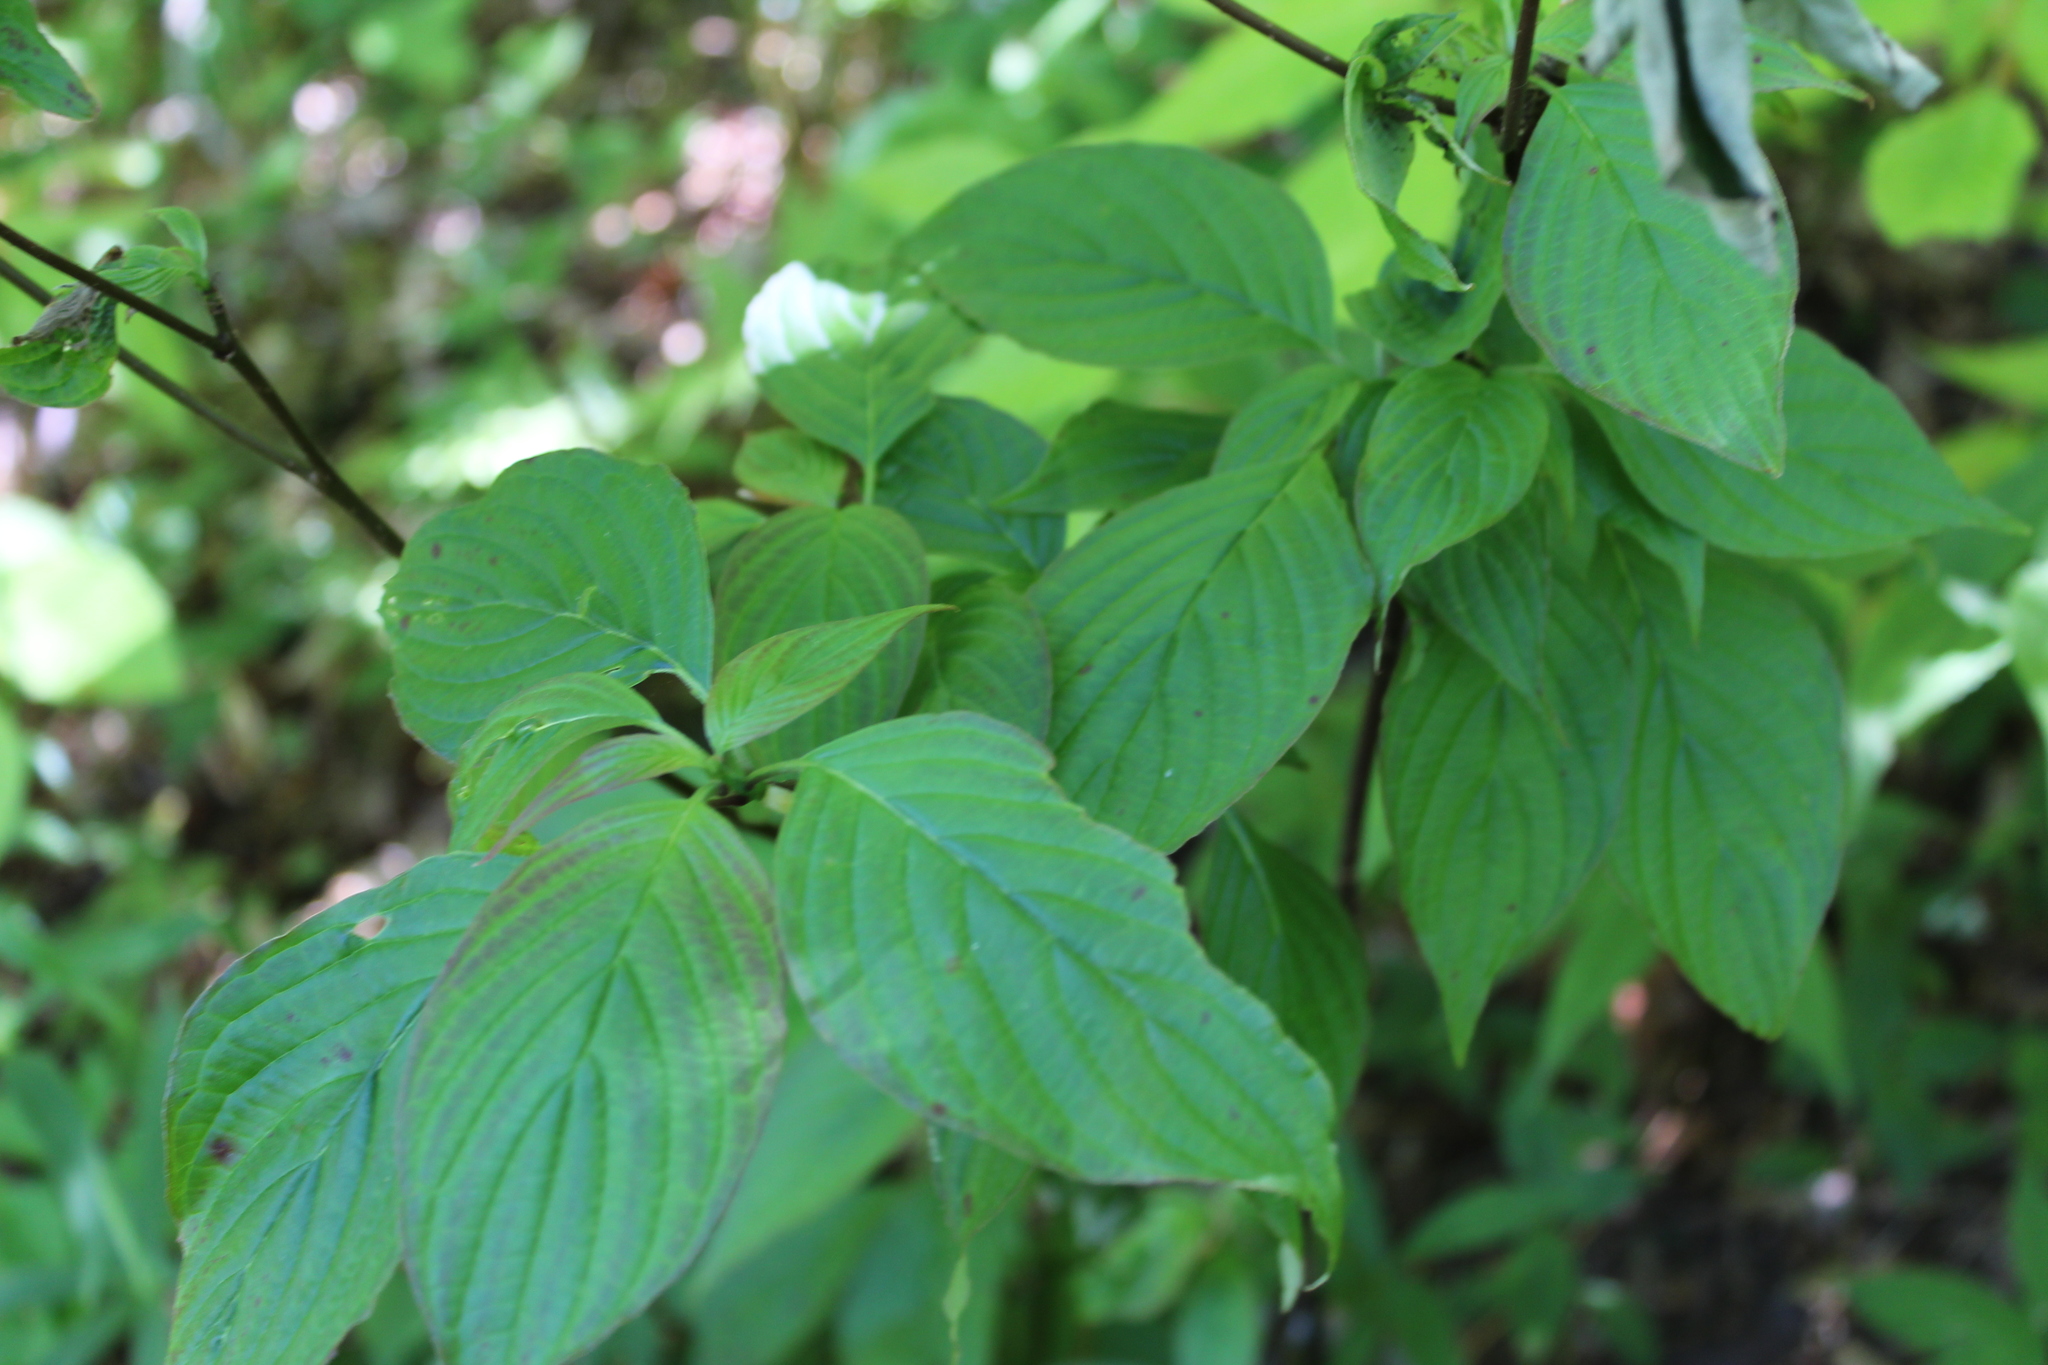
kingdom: Plantae
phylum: Tracheophyta
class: Magnoliopsida
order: Cornales
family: Cornaceae
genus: Cornus
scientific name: Cornus alternifolia
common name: Pagoda dogwood
